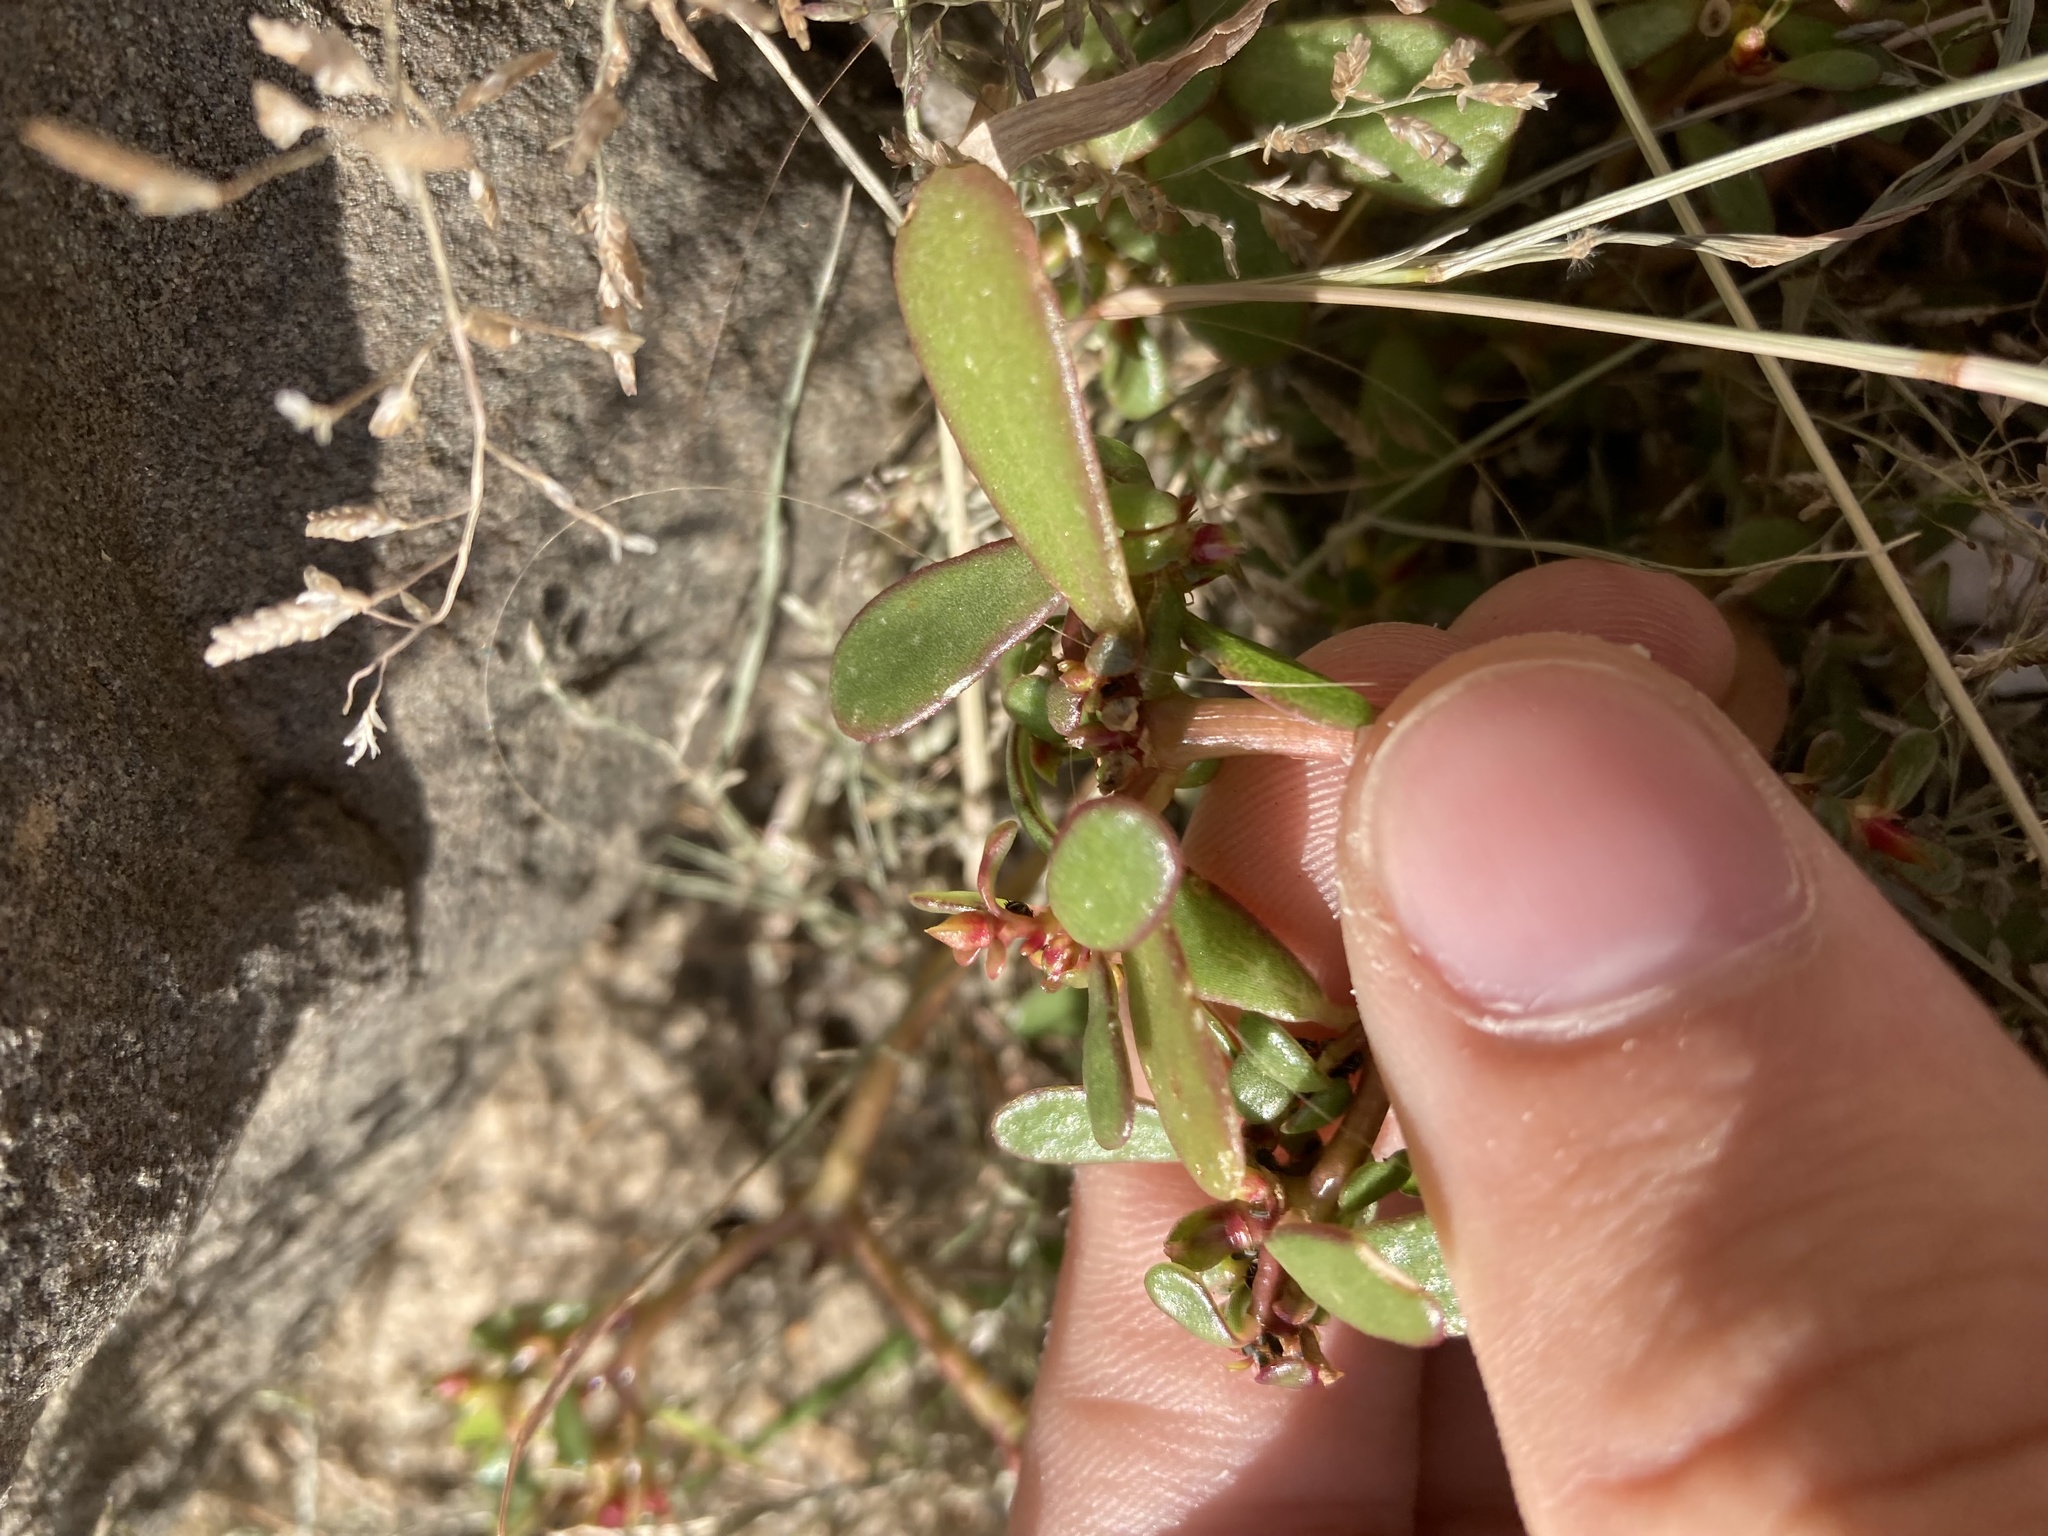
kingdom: Plantae
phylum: Tracheophyta
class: Magnoliopsida
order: Caryophyllales
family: Portulacaceae
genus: Portulaca
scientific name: Portulaca oleracea
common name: Common purslane
